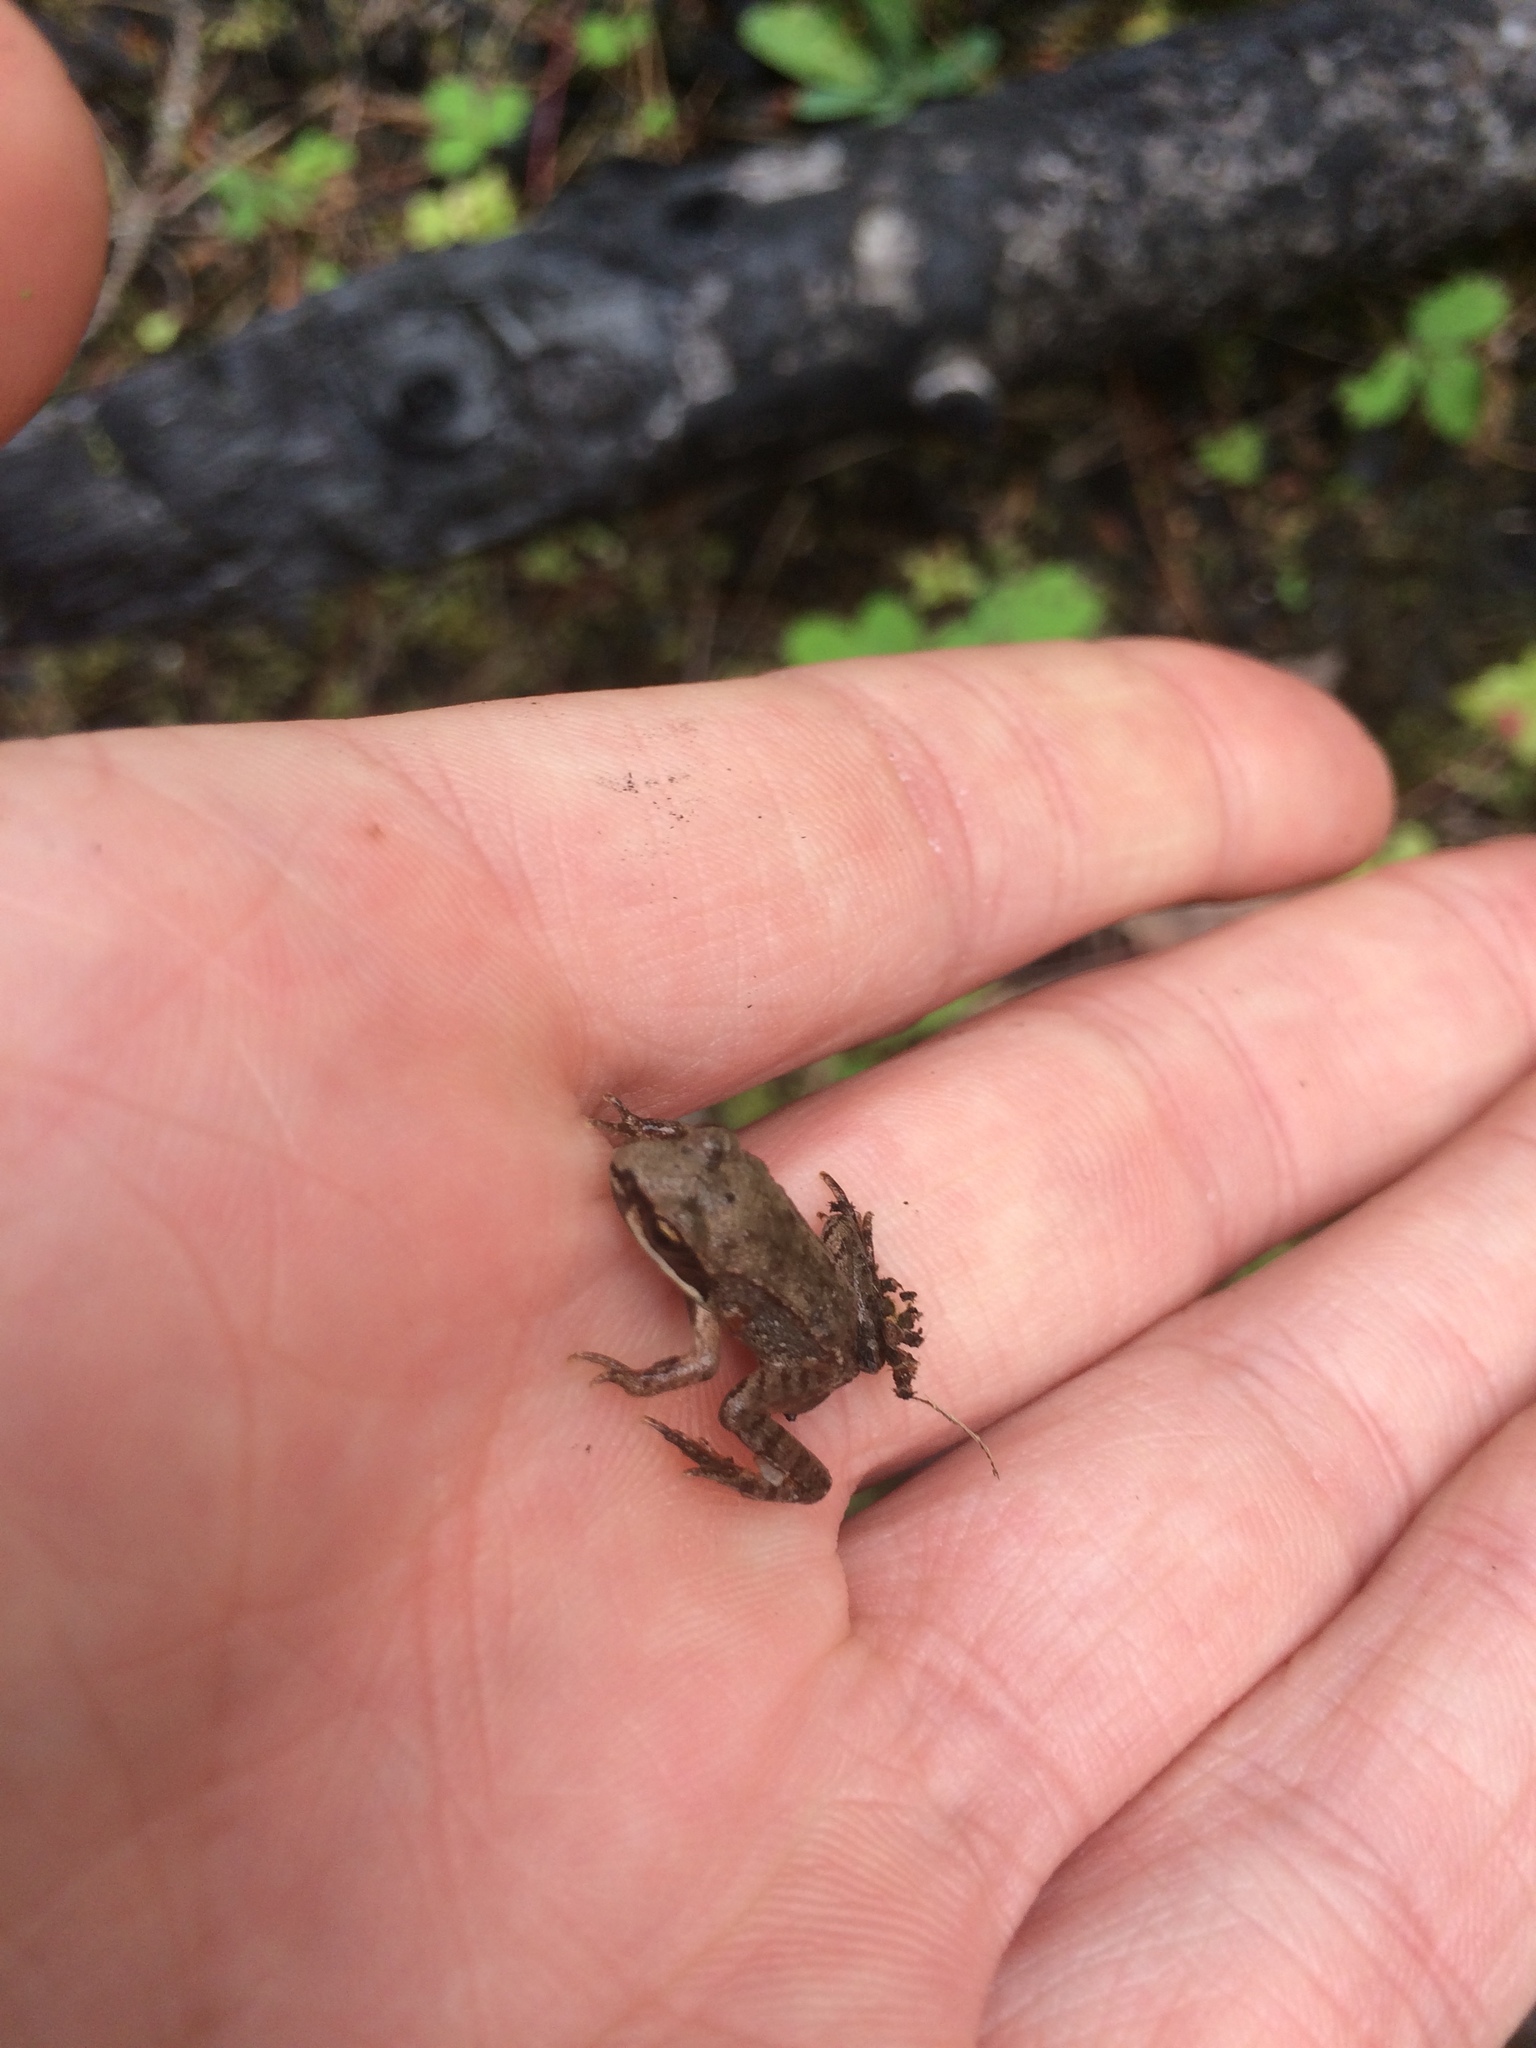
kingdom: Animalia
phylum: Chordata
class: Amphibia
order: Anura
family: Ranidae
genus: Lithobates
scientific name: Lithobates sylvaticus
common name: Wood frog
